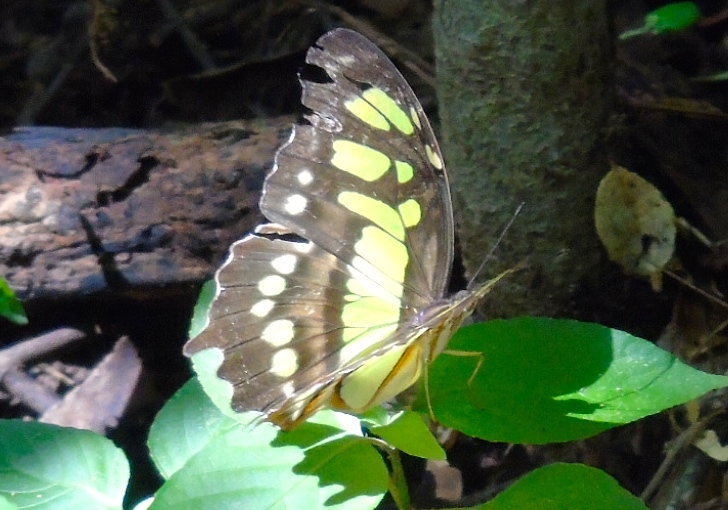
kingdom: Animalia
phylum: Arthropoda
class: Insecta
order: Lepidoptera
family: Nymphalidae
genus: Siproeta
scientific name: Siproeta stelenes
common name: Malachite
